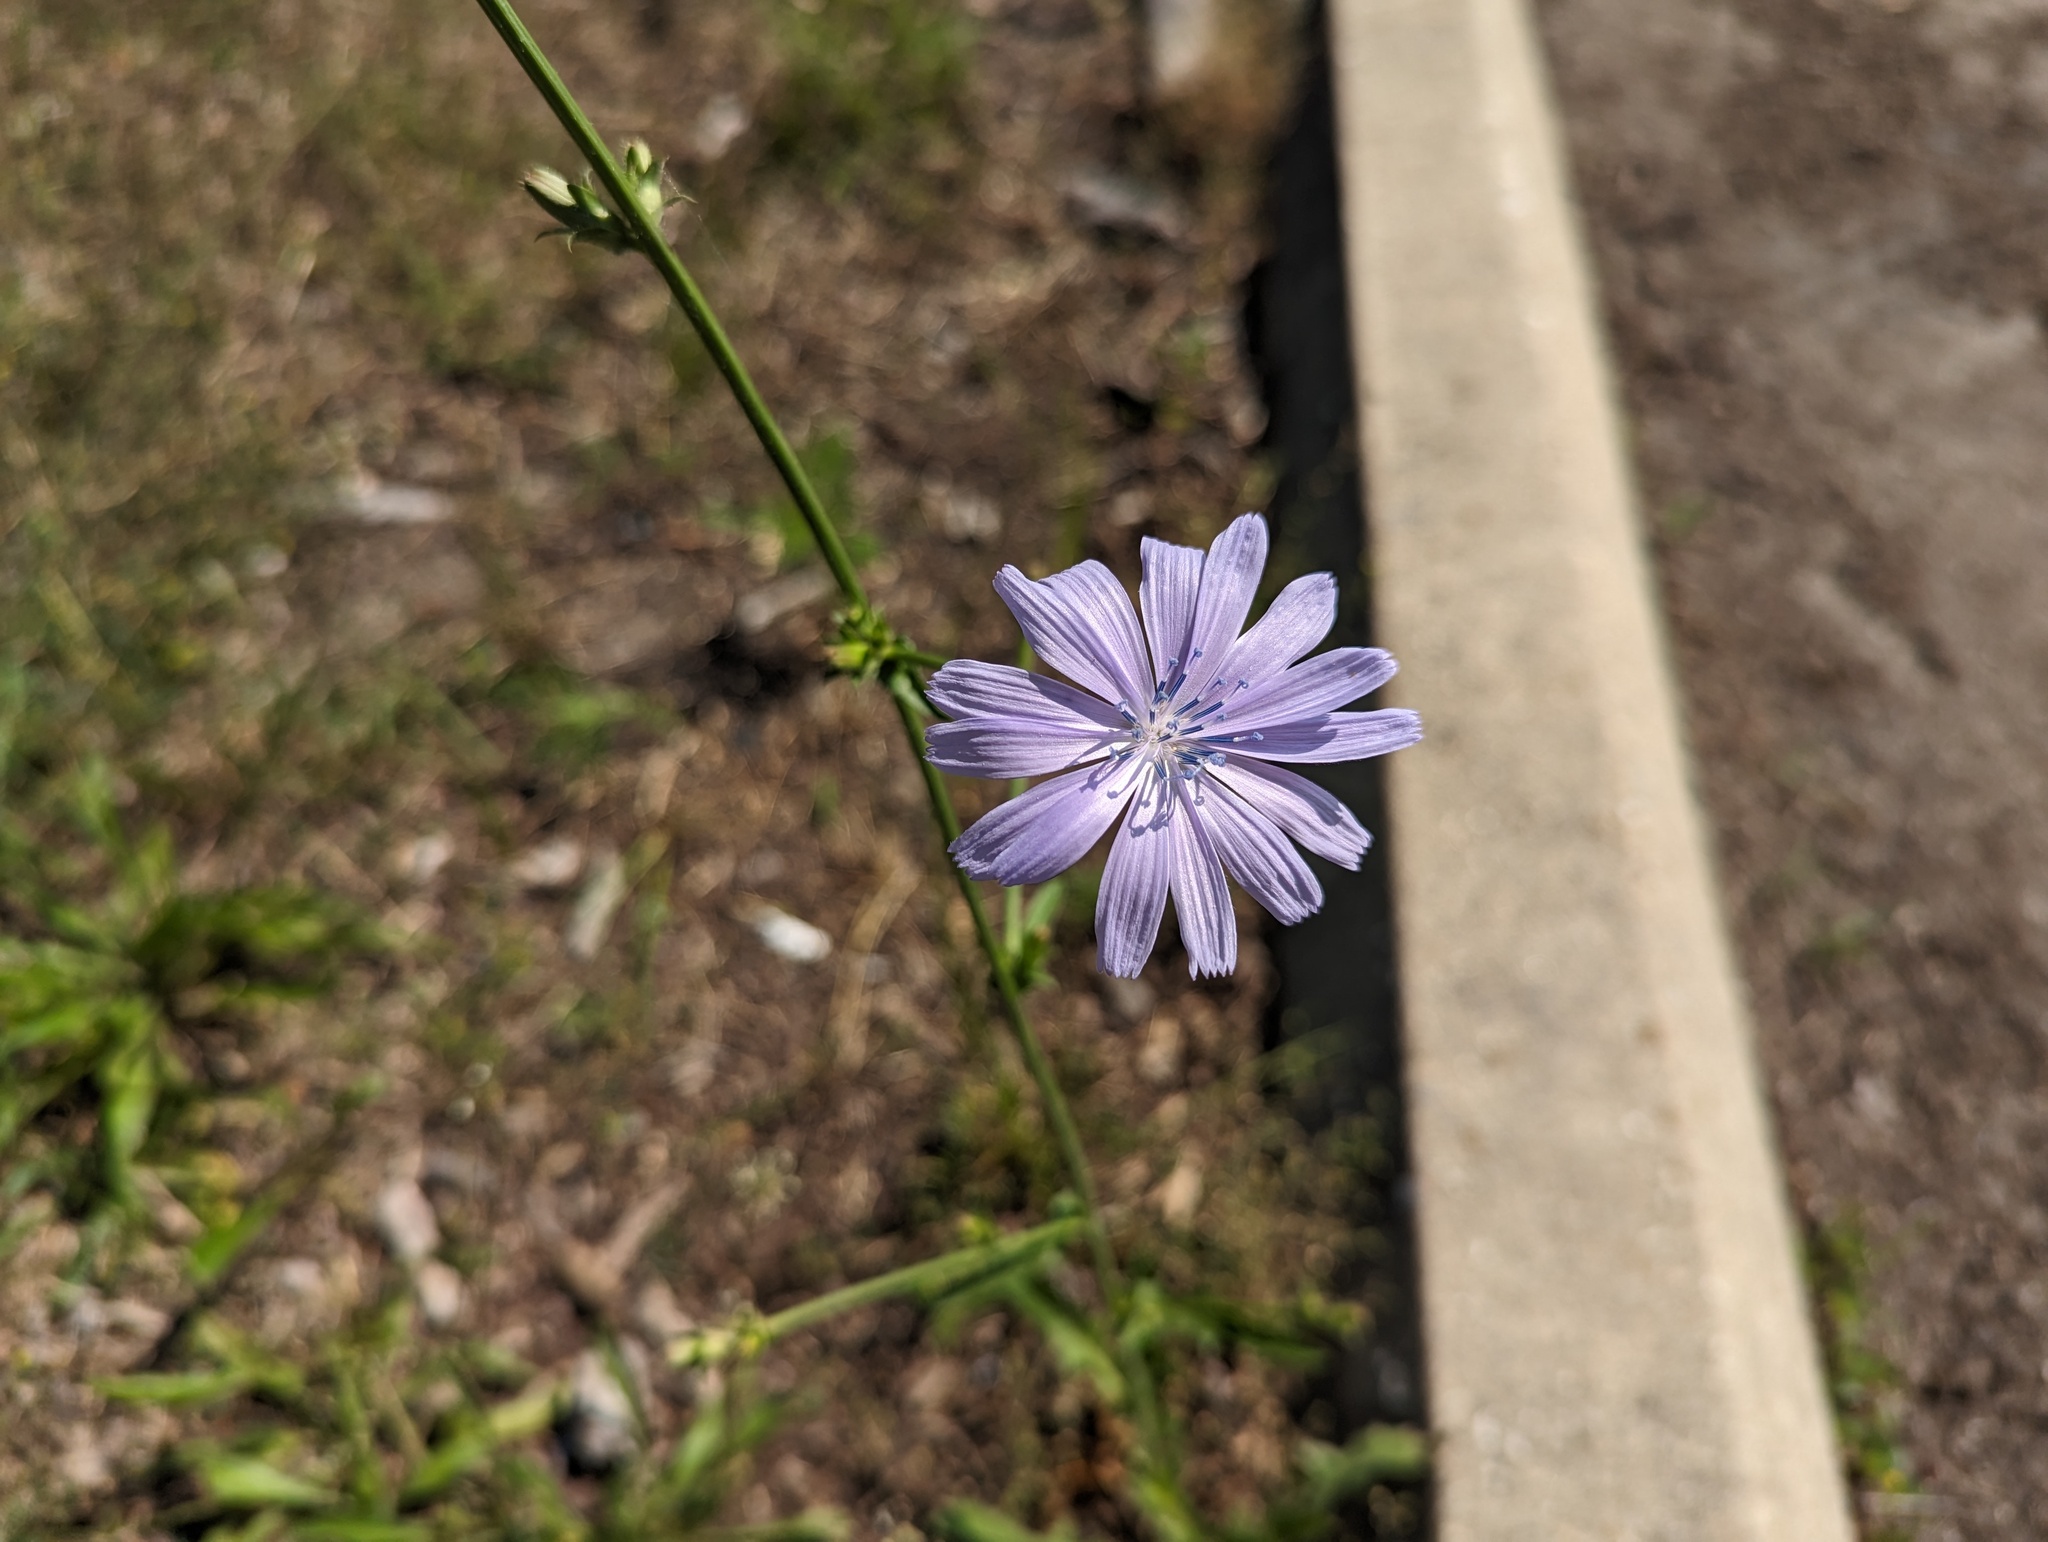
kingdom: Plantae
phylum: Tracheophyta
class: Magnoliopsida
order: Asterales
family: Asteraceae
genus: Cichorium
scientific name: Cichorium intybus
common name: Chicory
